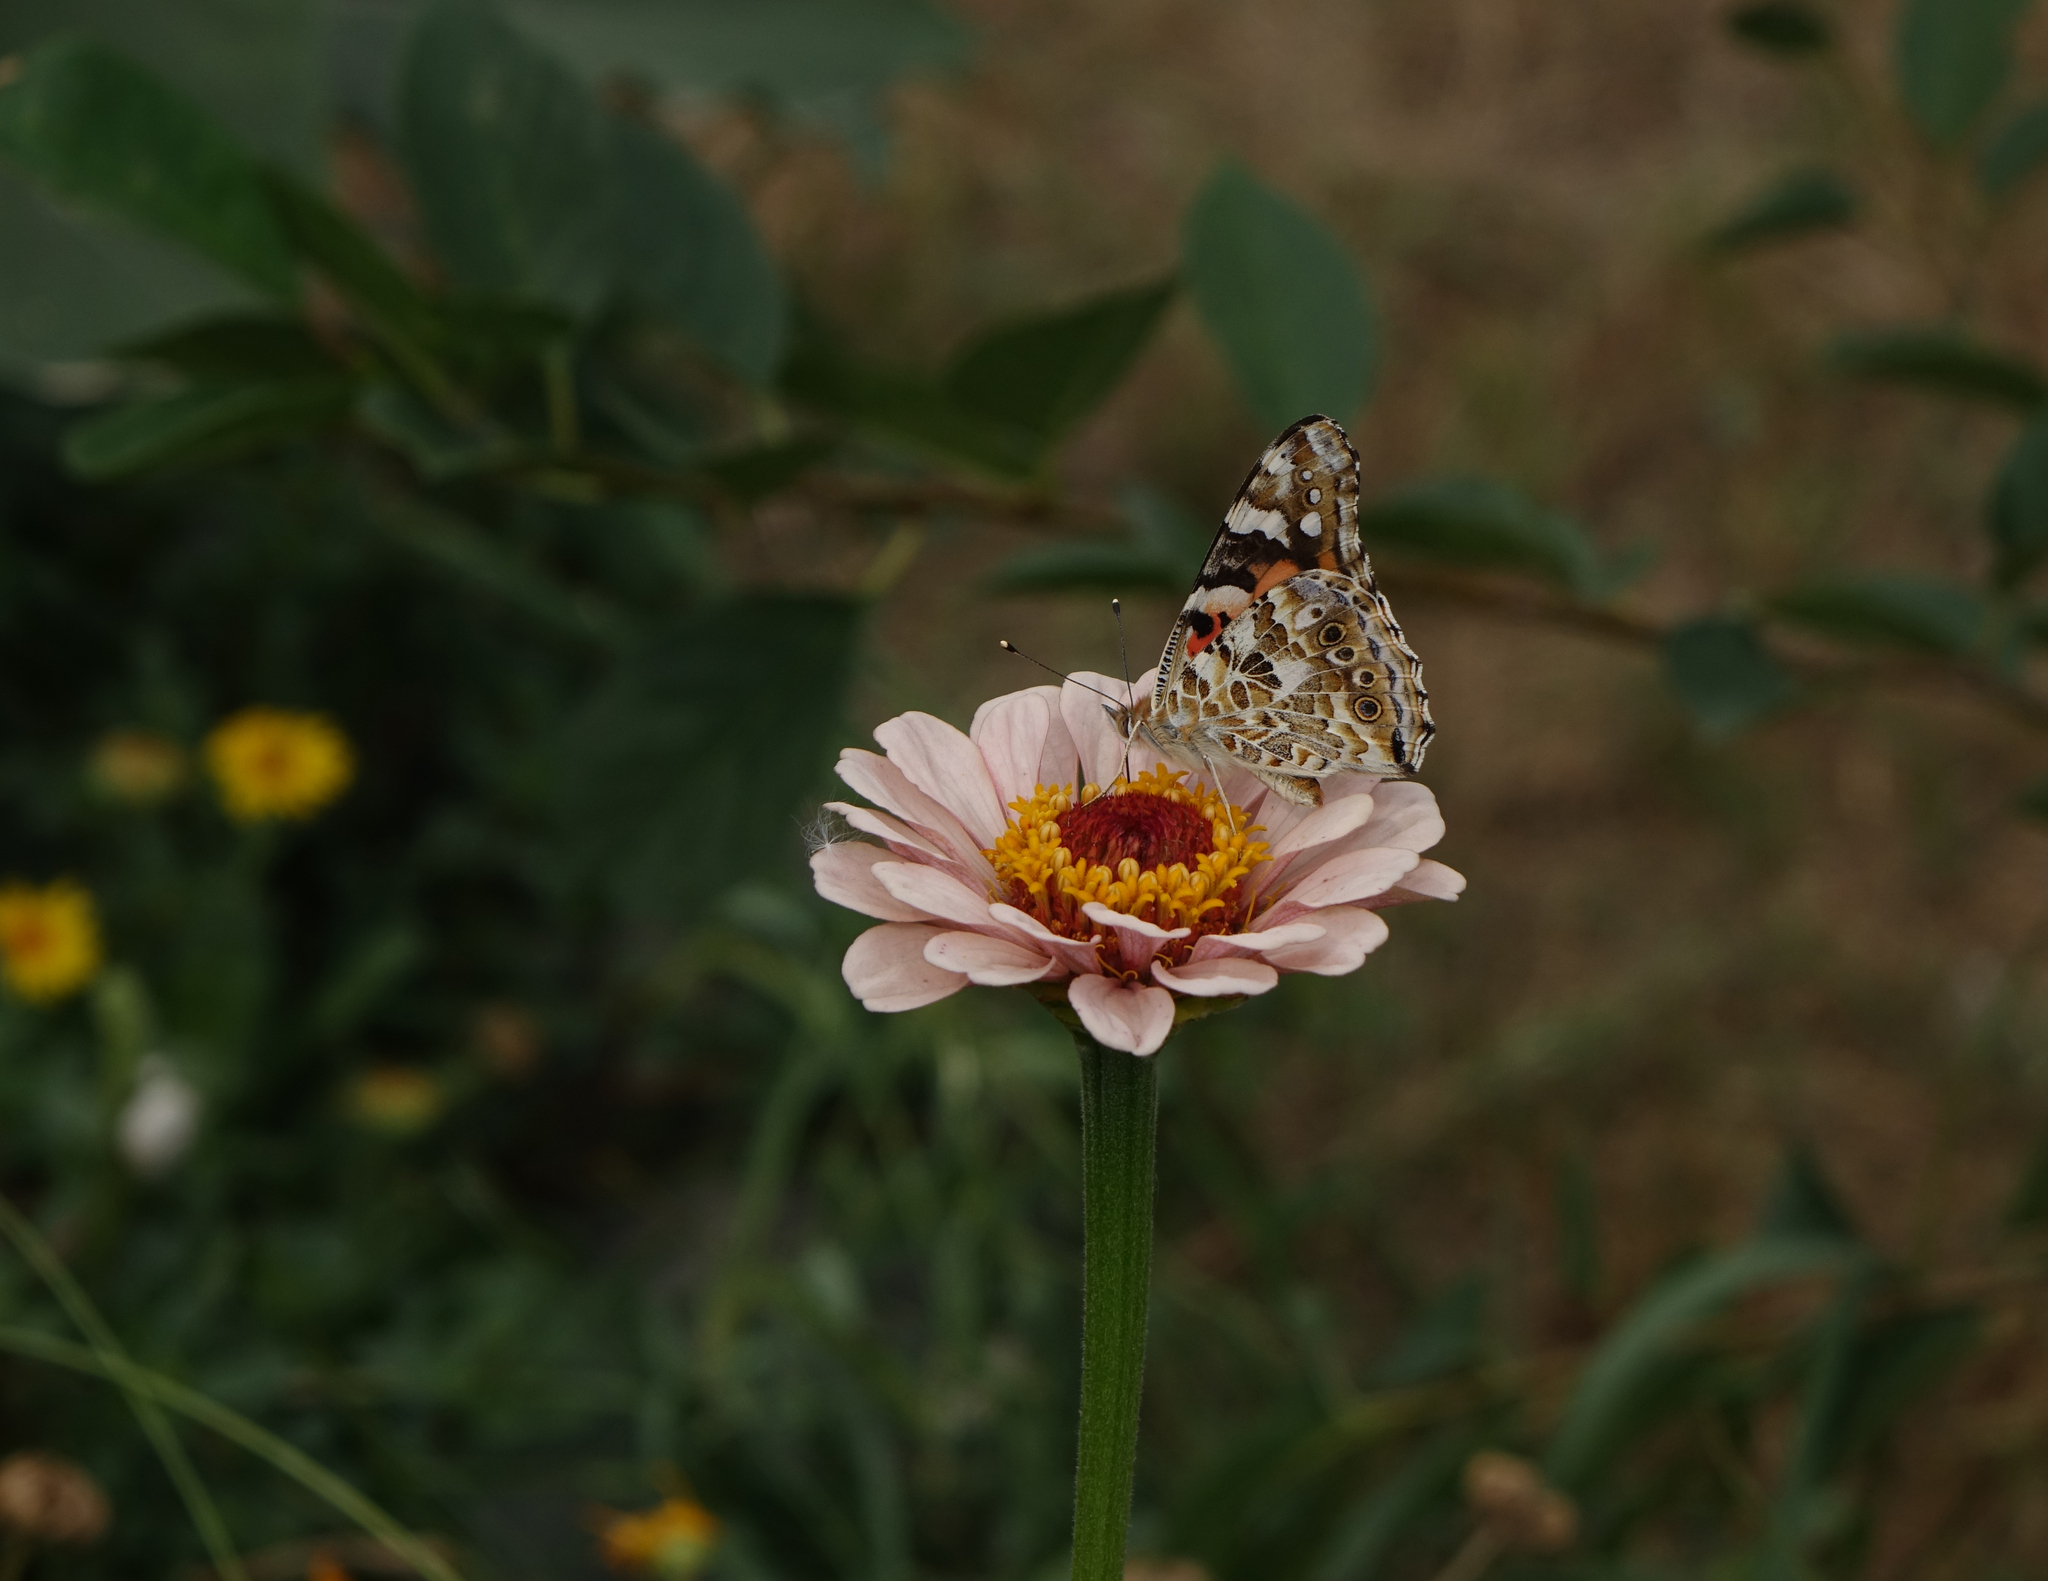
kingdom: Animalia
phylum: Arthropoda
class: Insecta
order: Lepidoptera
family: Nymphalidae
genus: Vanessa
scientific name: Vanessa cardui
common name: Painted lady
